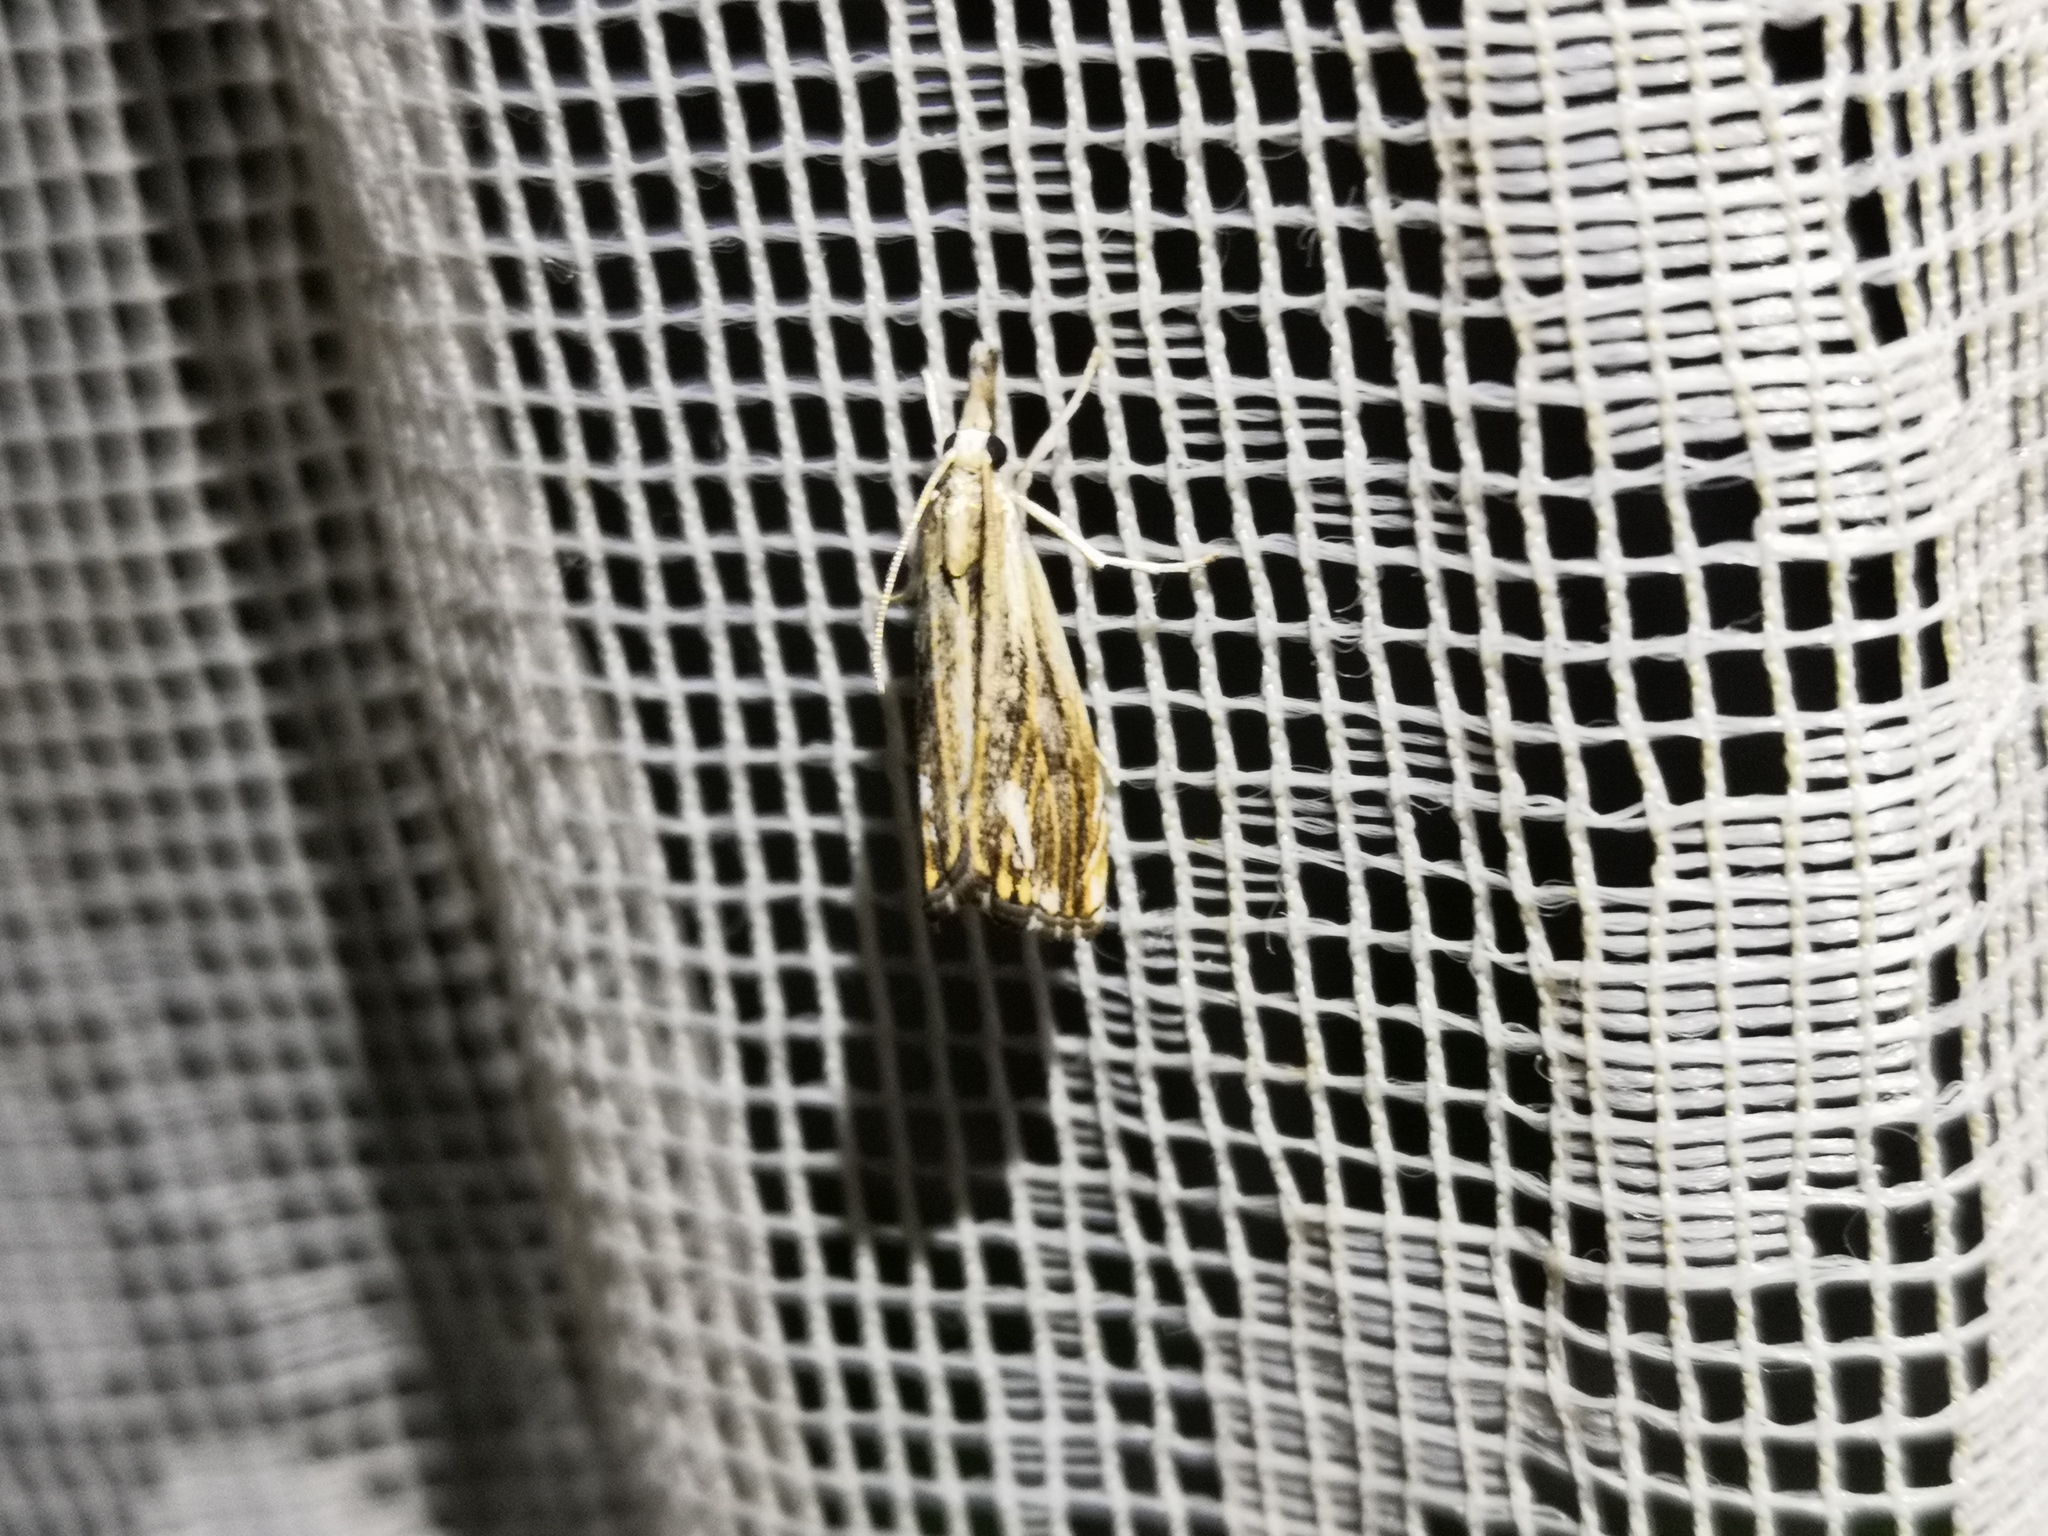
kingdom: Animalia
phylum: Arthropoda
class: Insecta
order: Lepidoptera
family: Crambidae
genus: Catoptria
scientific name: Catoptria verellus
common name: Marbled grass-veneer
